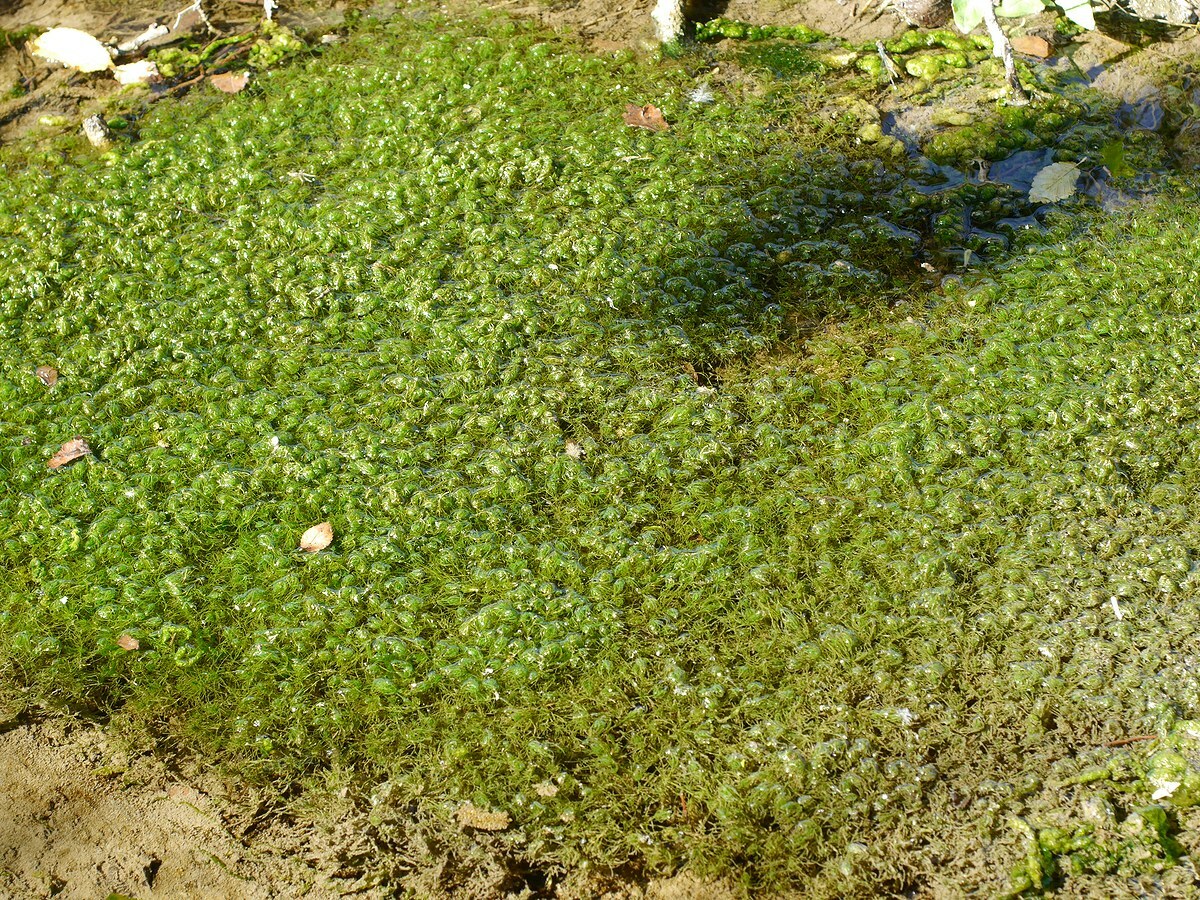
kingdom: Plantae
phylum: Charophyta
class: Charophyceae
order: Charales
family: Characeae
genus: Chara
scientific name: Chara vulgaris
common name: Common stonewort
